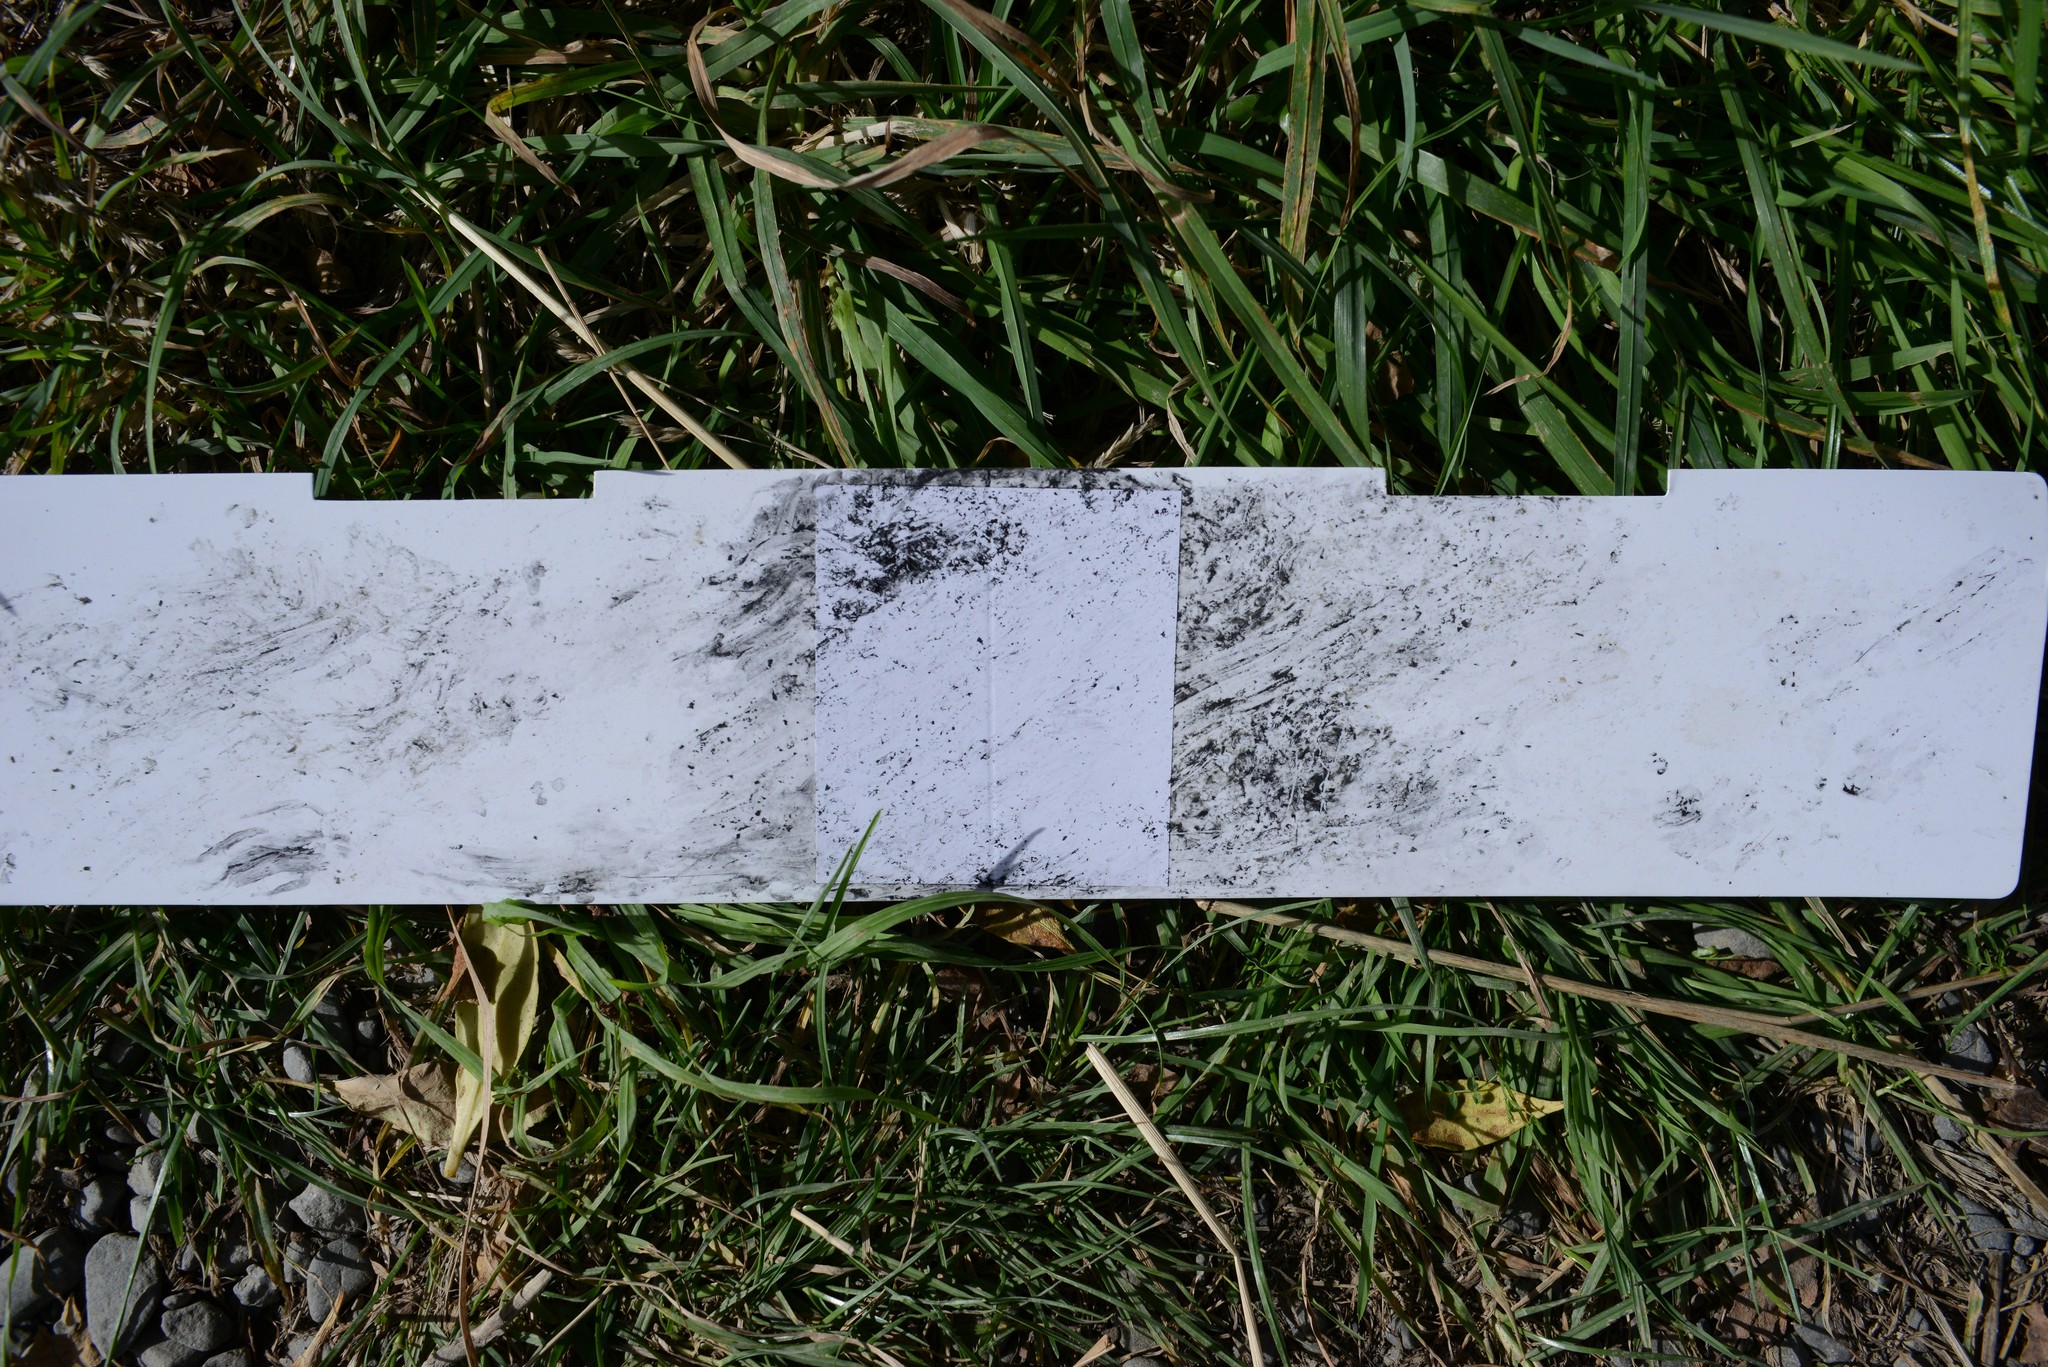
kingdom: Animalia
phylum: Chordata
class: Mammalia
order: Diprotodontia
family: Phalangeridae
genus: Trichosurus
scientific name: Trichosurus vulpecula
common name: Common brushtail
